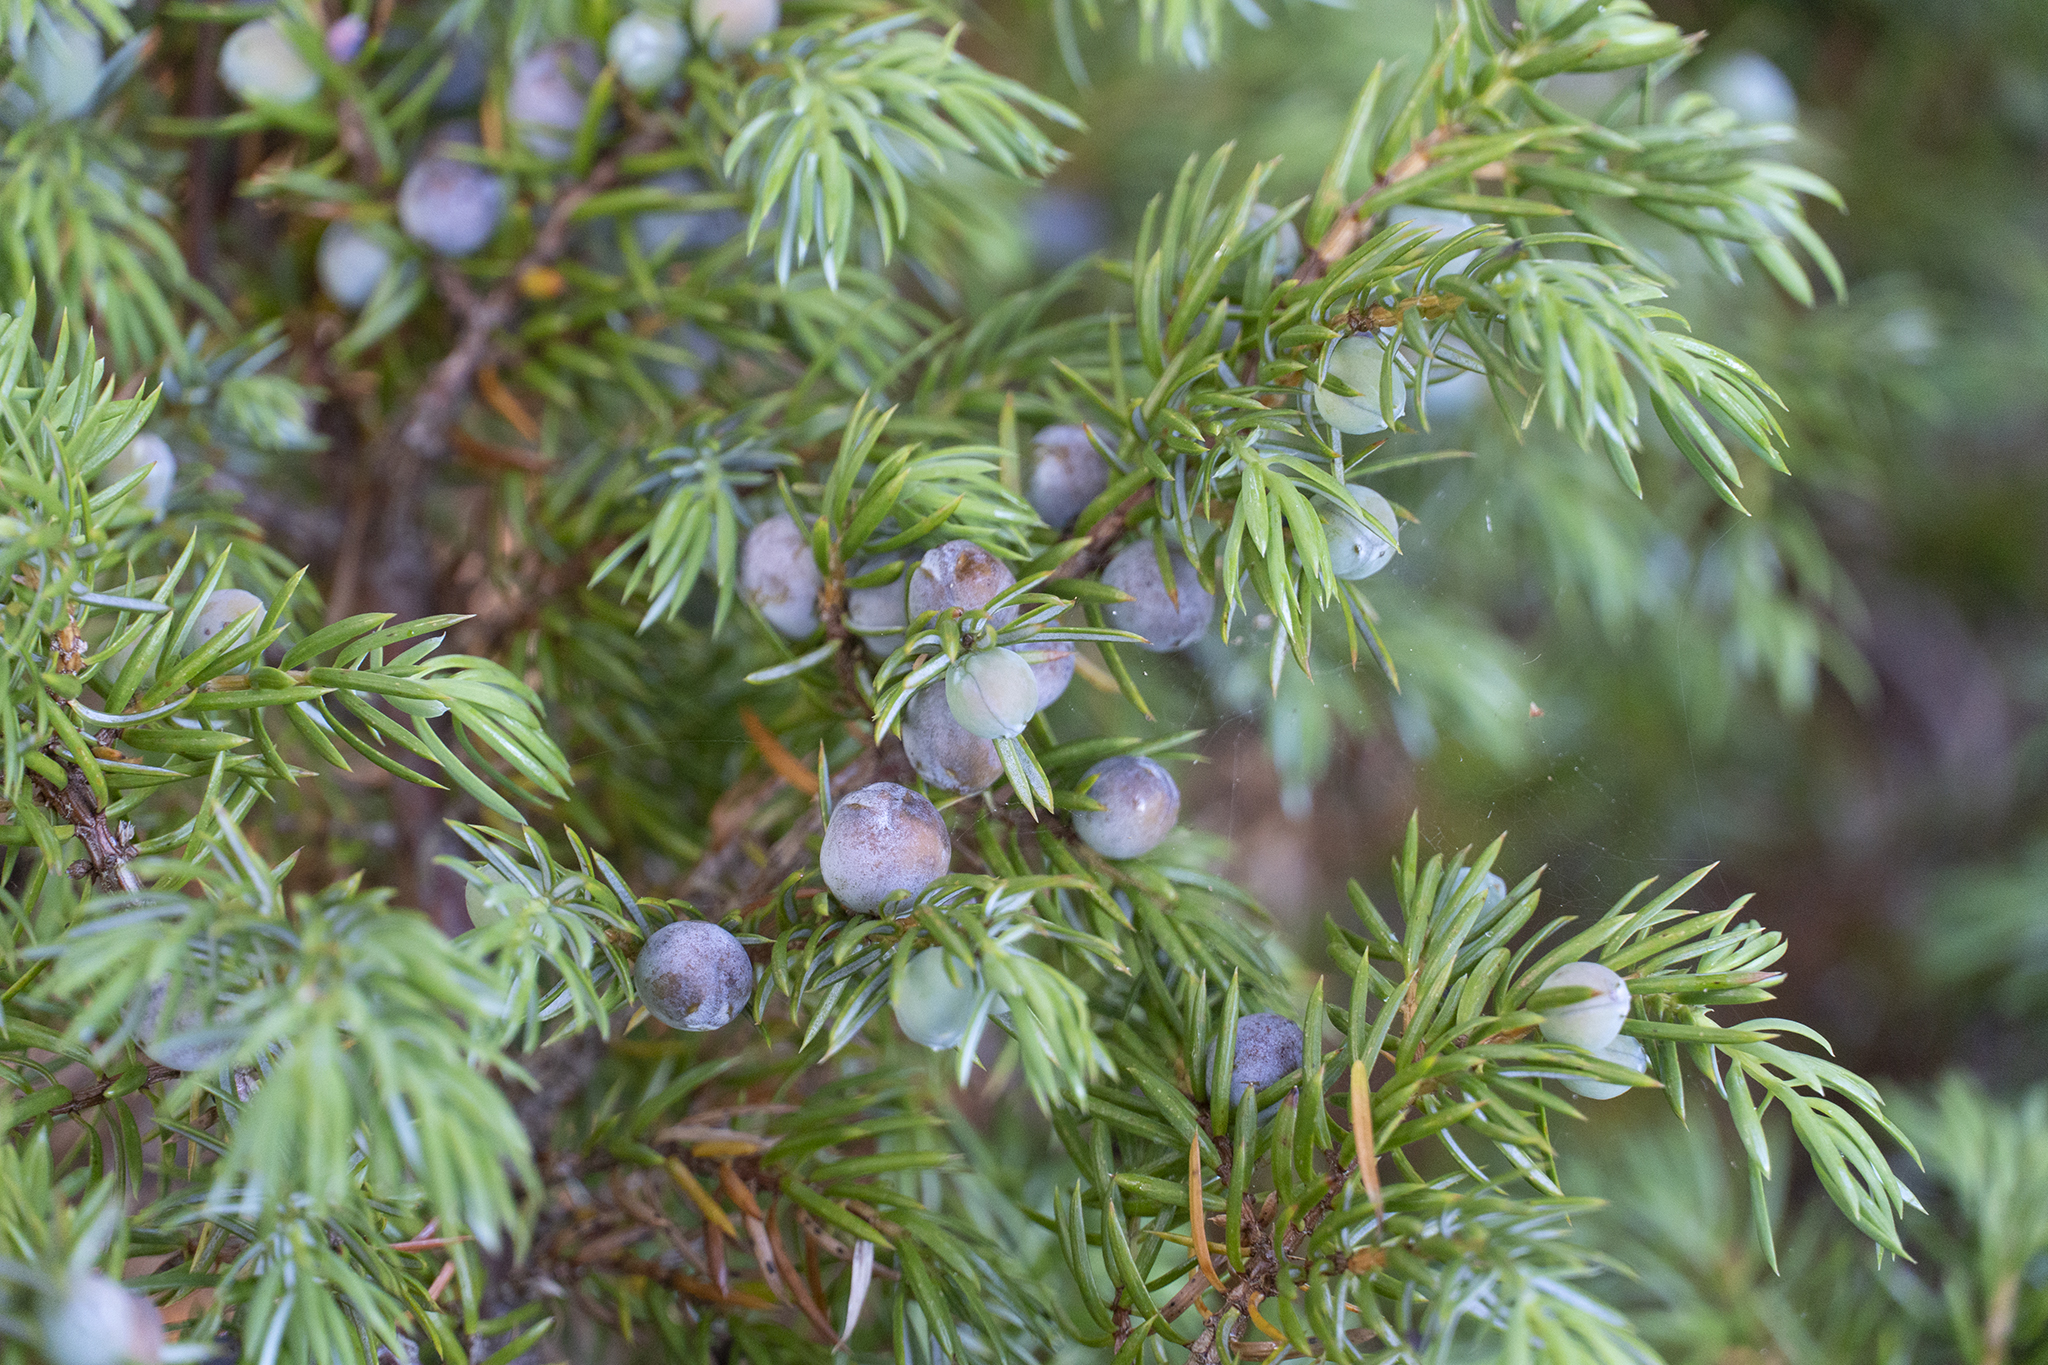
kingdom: Plantae
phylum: Tracheophyta
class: Pinopsida
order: Pinales
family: Cupressaceae
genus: Juniperus
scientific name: Juniperus communis
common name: Common juniper
